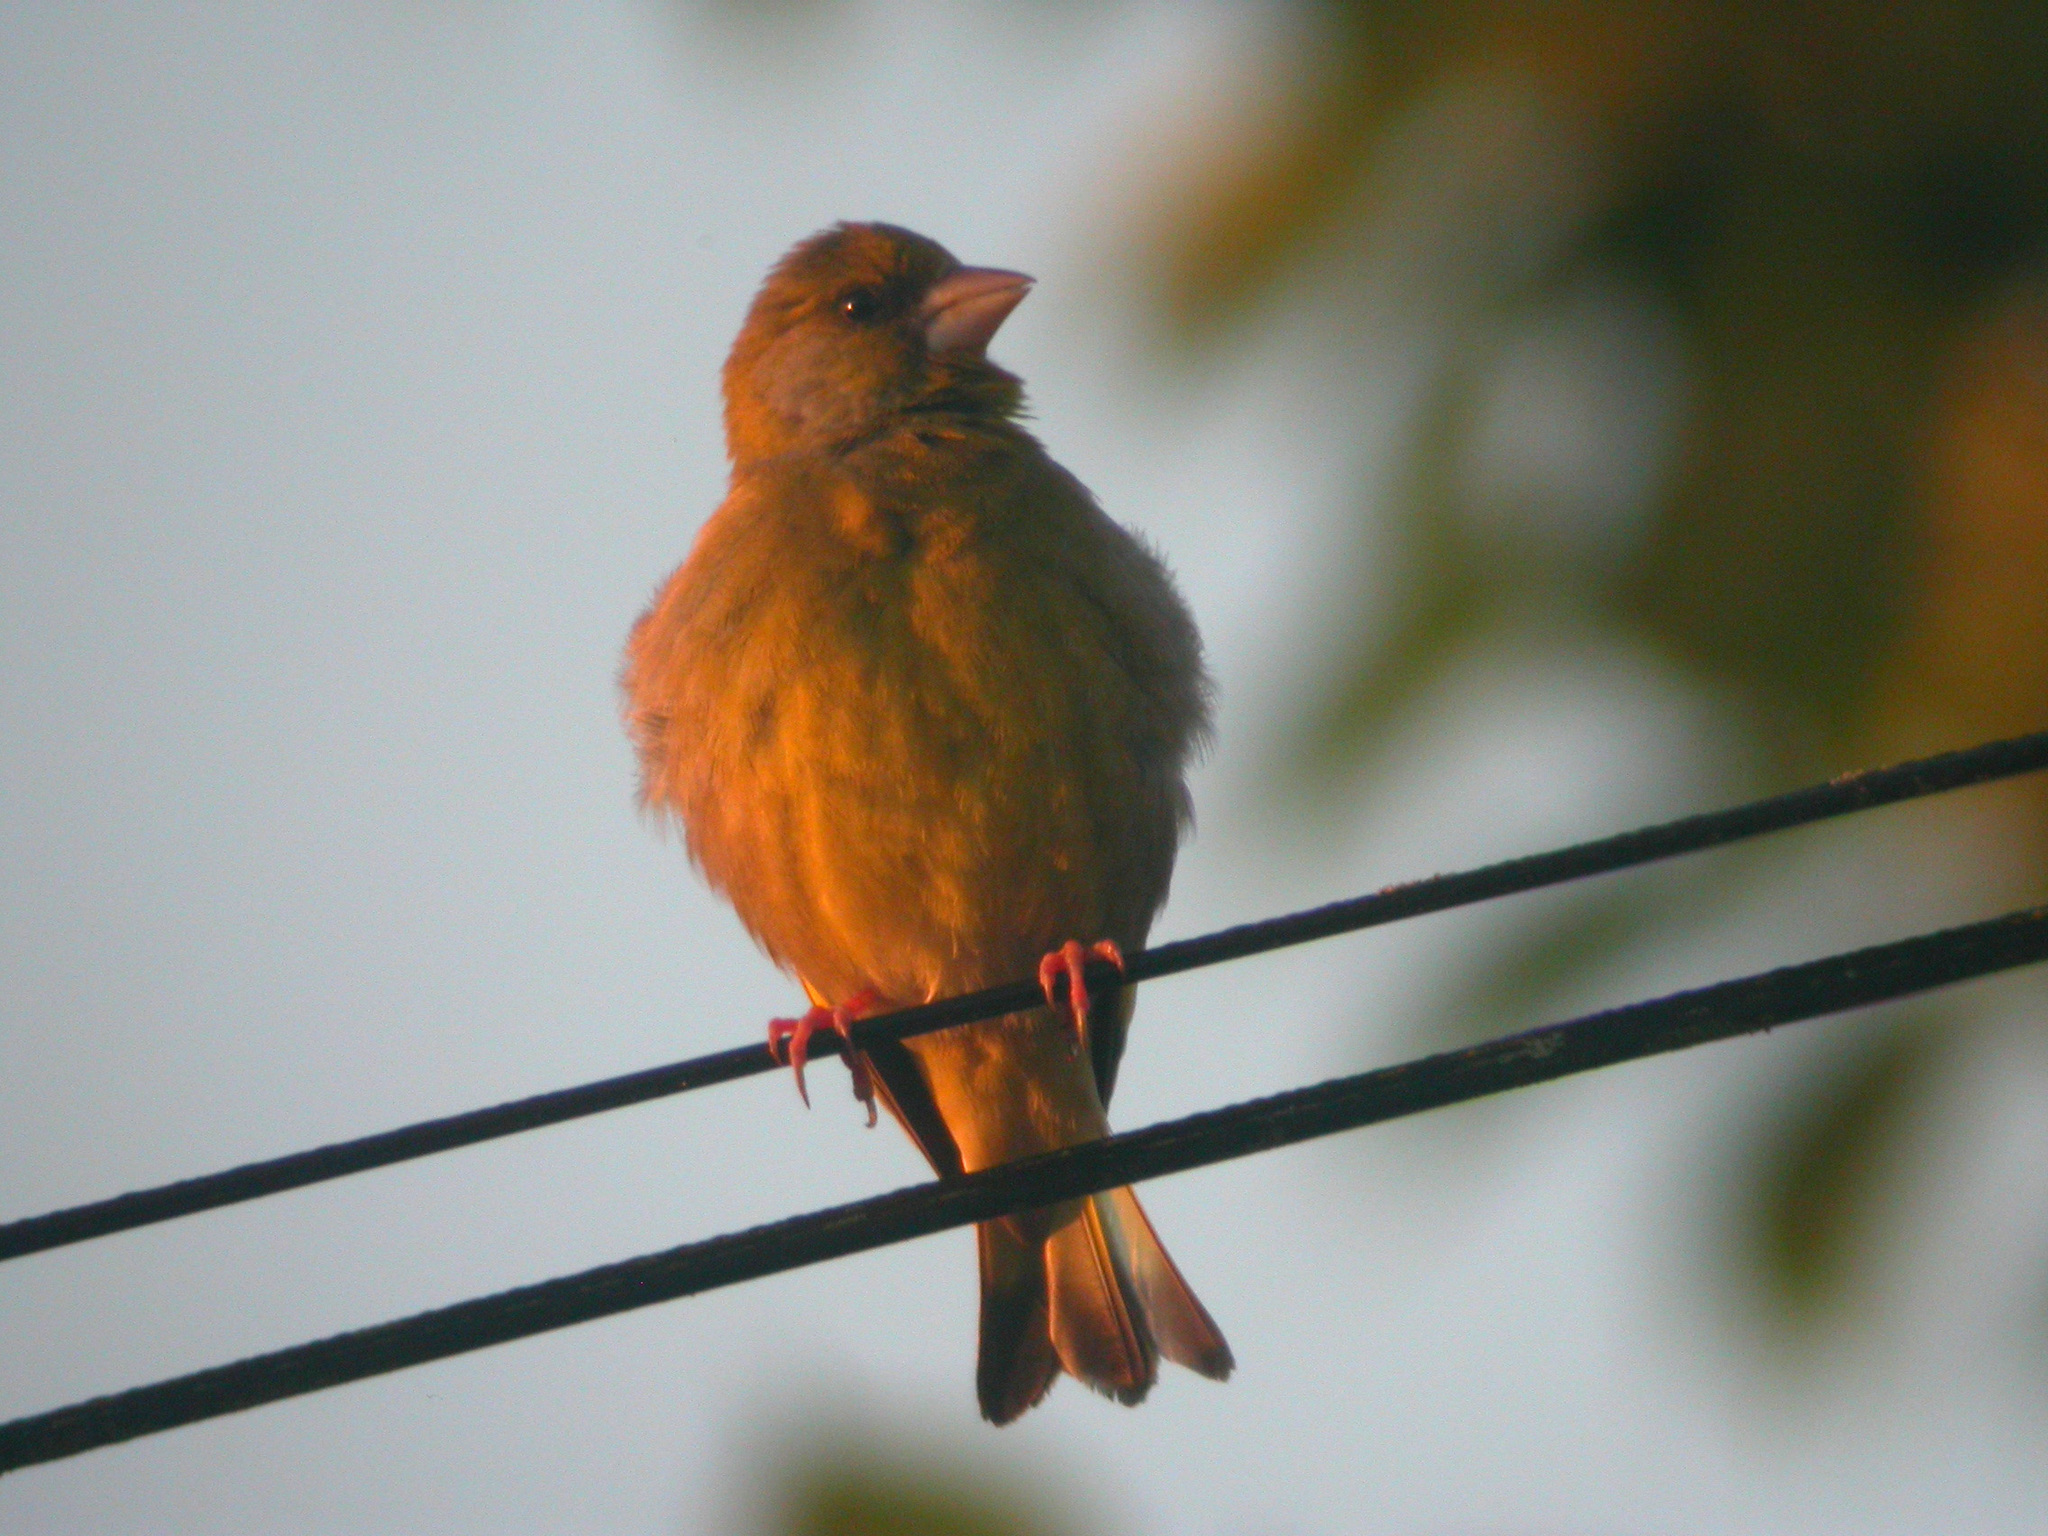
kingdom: Plantae
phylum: Tracheophyta
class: Liliopsida
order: Poales
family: Poaceae
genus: Chloris
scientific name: Chloris chloris
